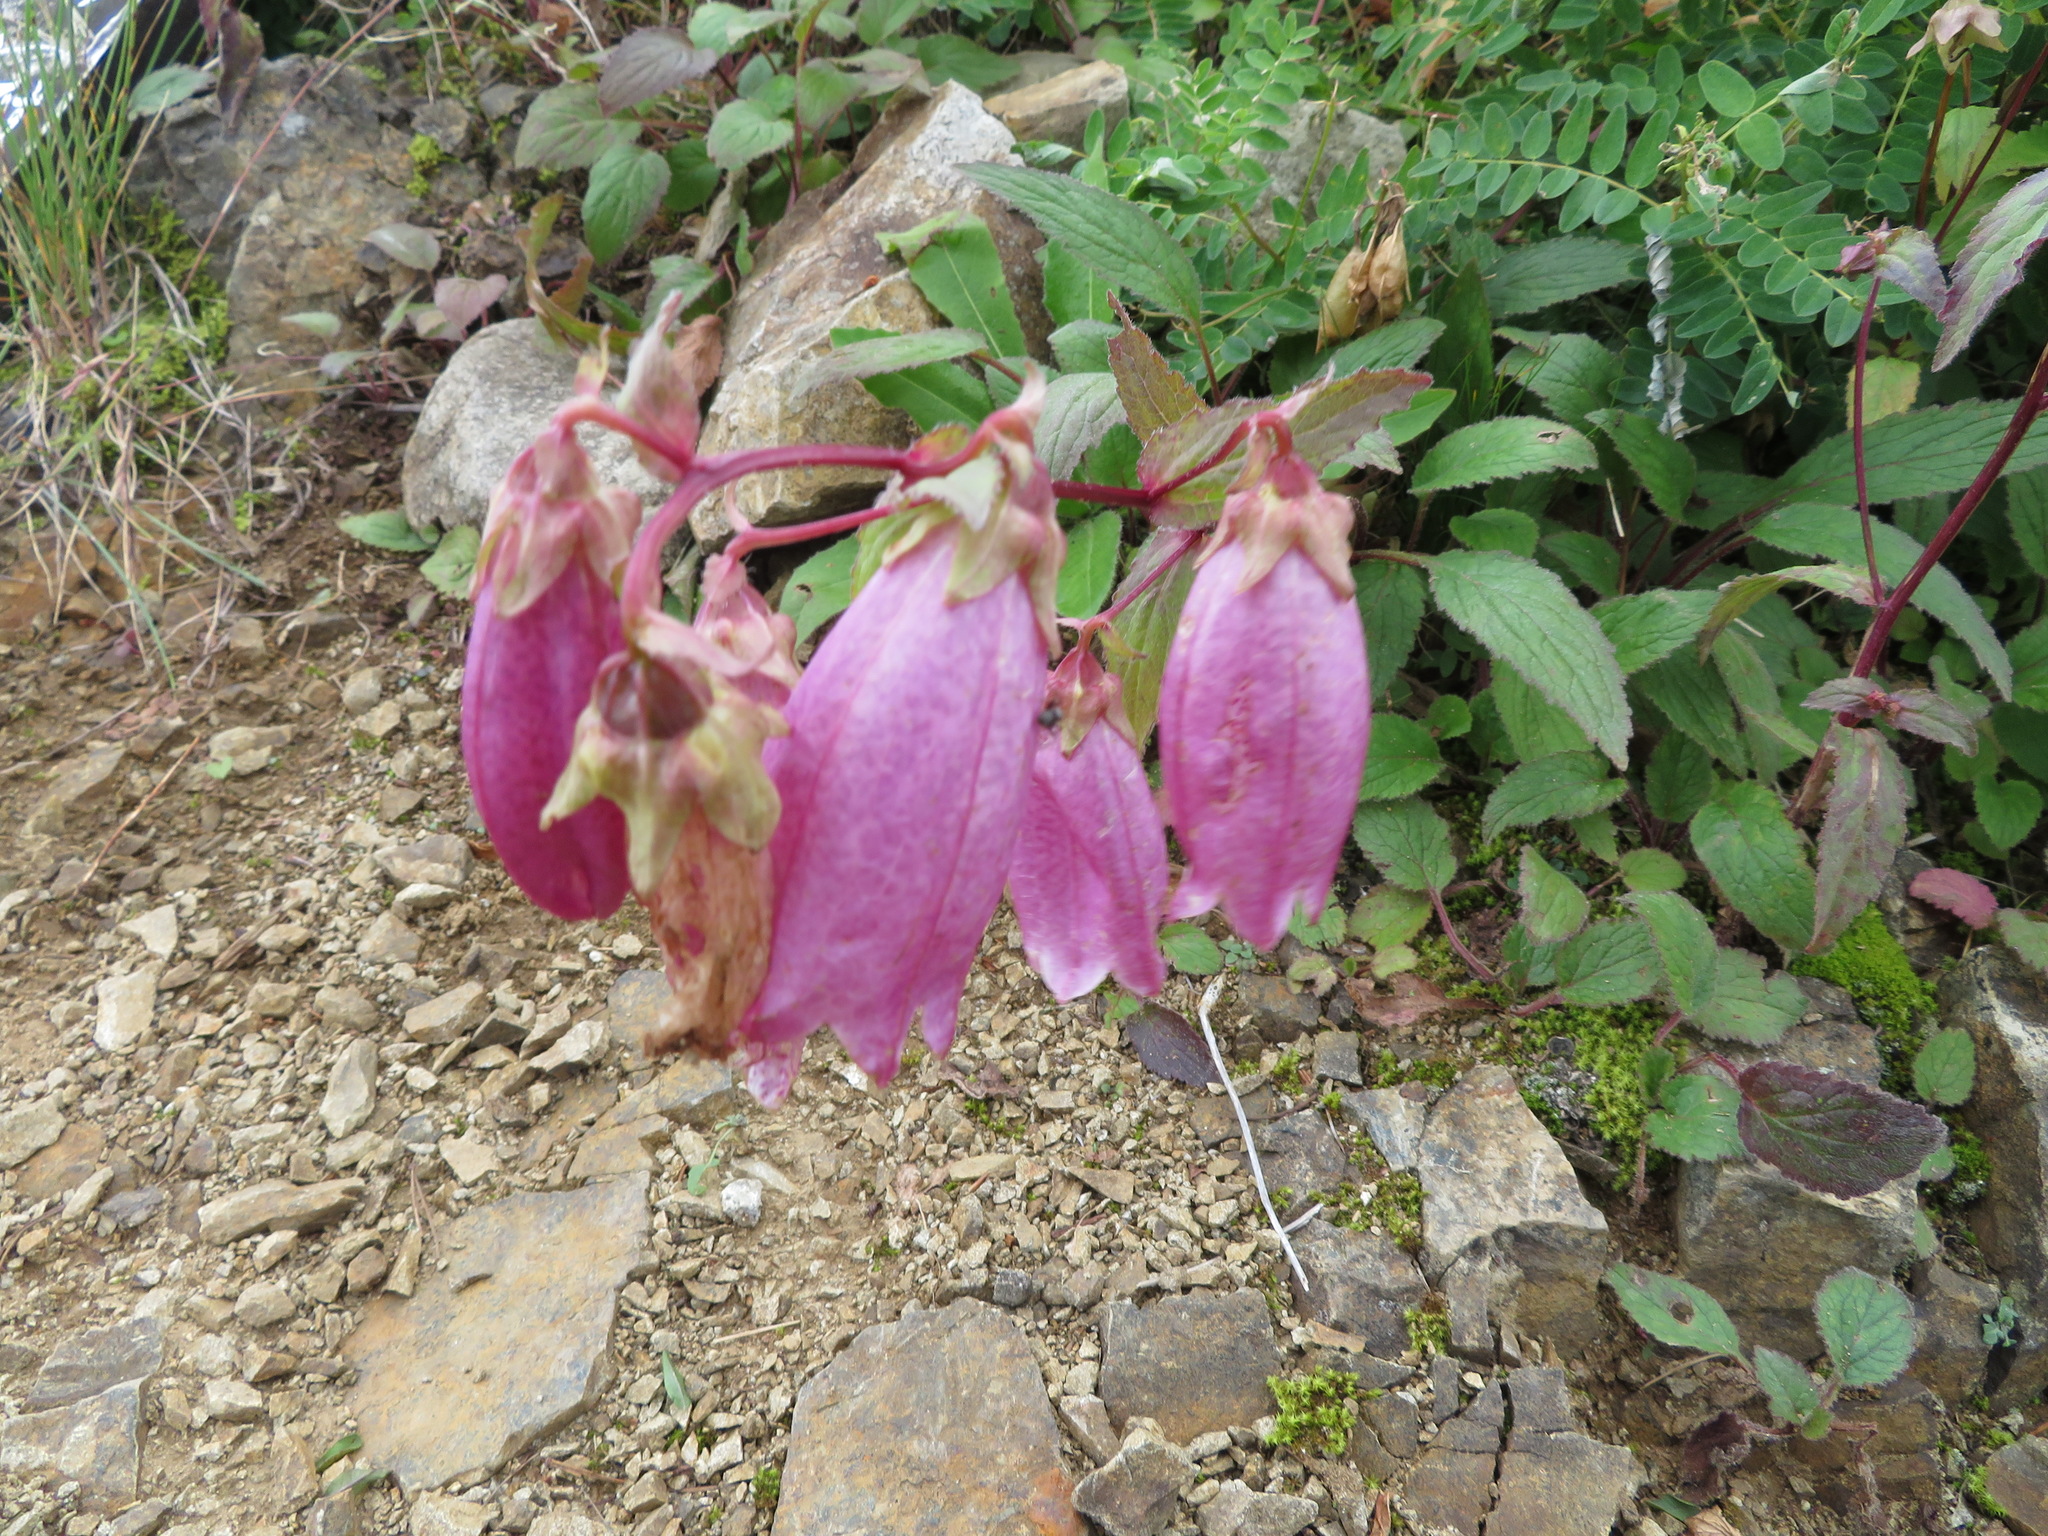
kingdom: Plantae
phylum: Tracheophyta
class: Magnoliopsida
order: Asterales
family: Campanulaceae
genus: Campanula
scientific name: Campanula punctata
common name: Spotted bellflower
